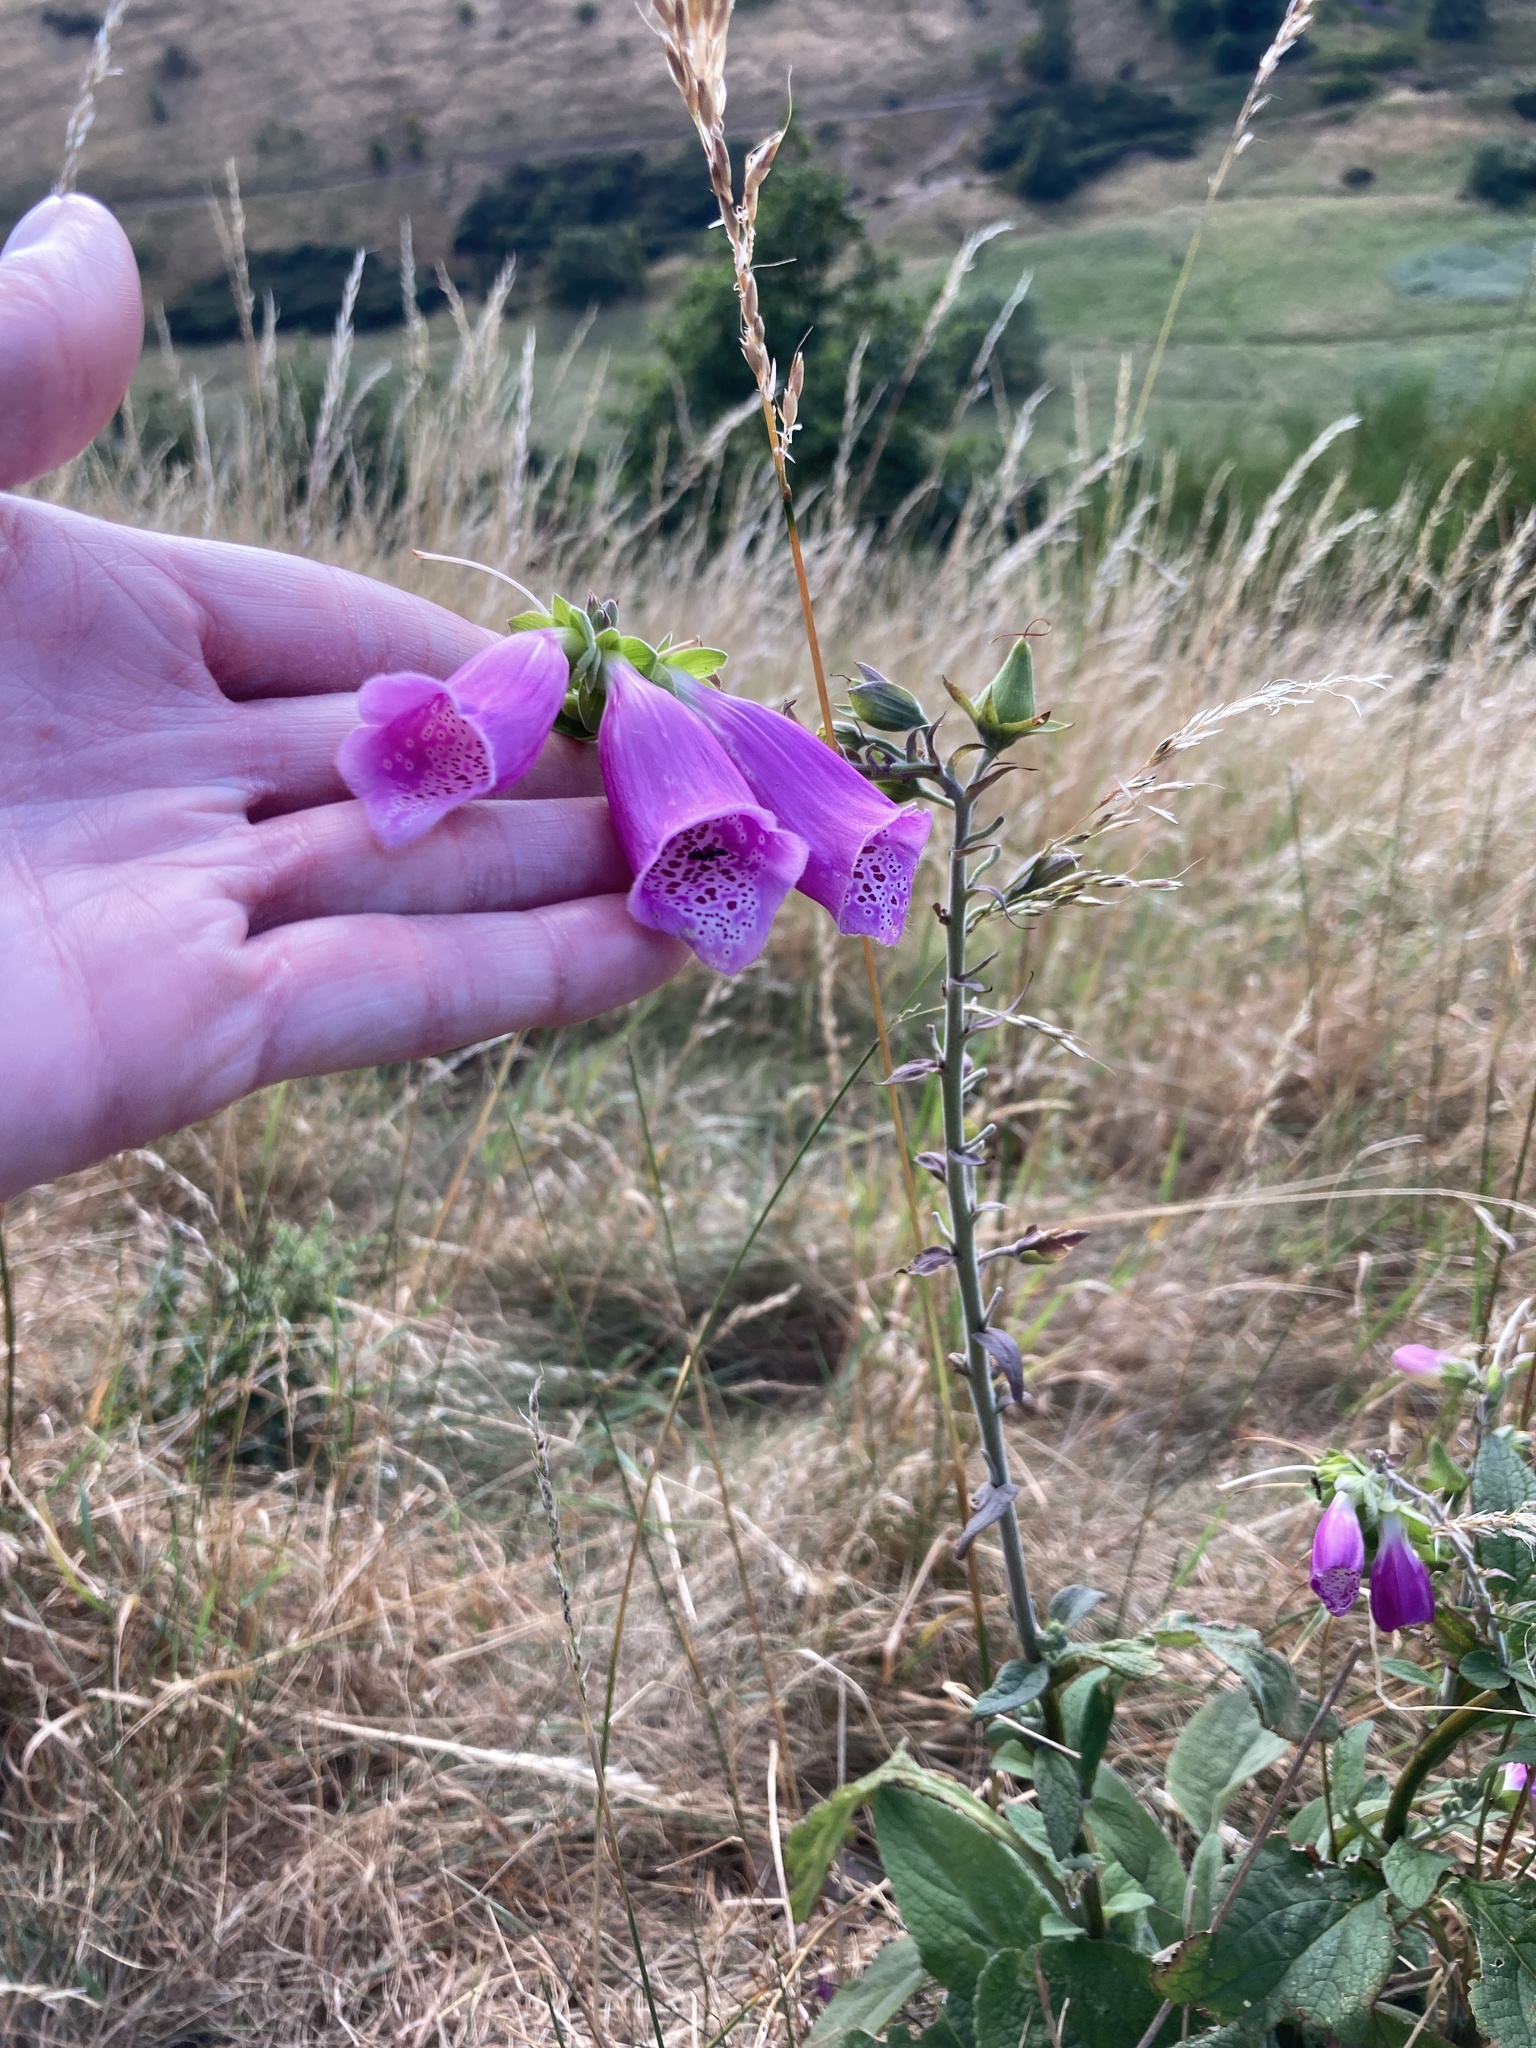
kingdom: Plantae
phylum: Tracheophyta
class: Magnoliopsida
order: Lamiales
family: Plantaginaceae
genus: Digitalis
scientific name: Digitalis purpurea
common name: Foxglove
